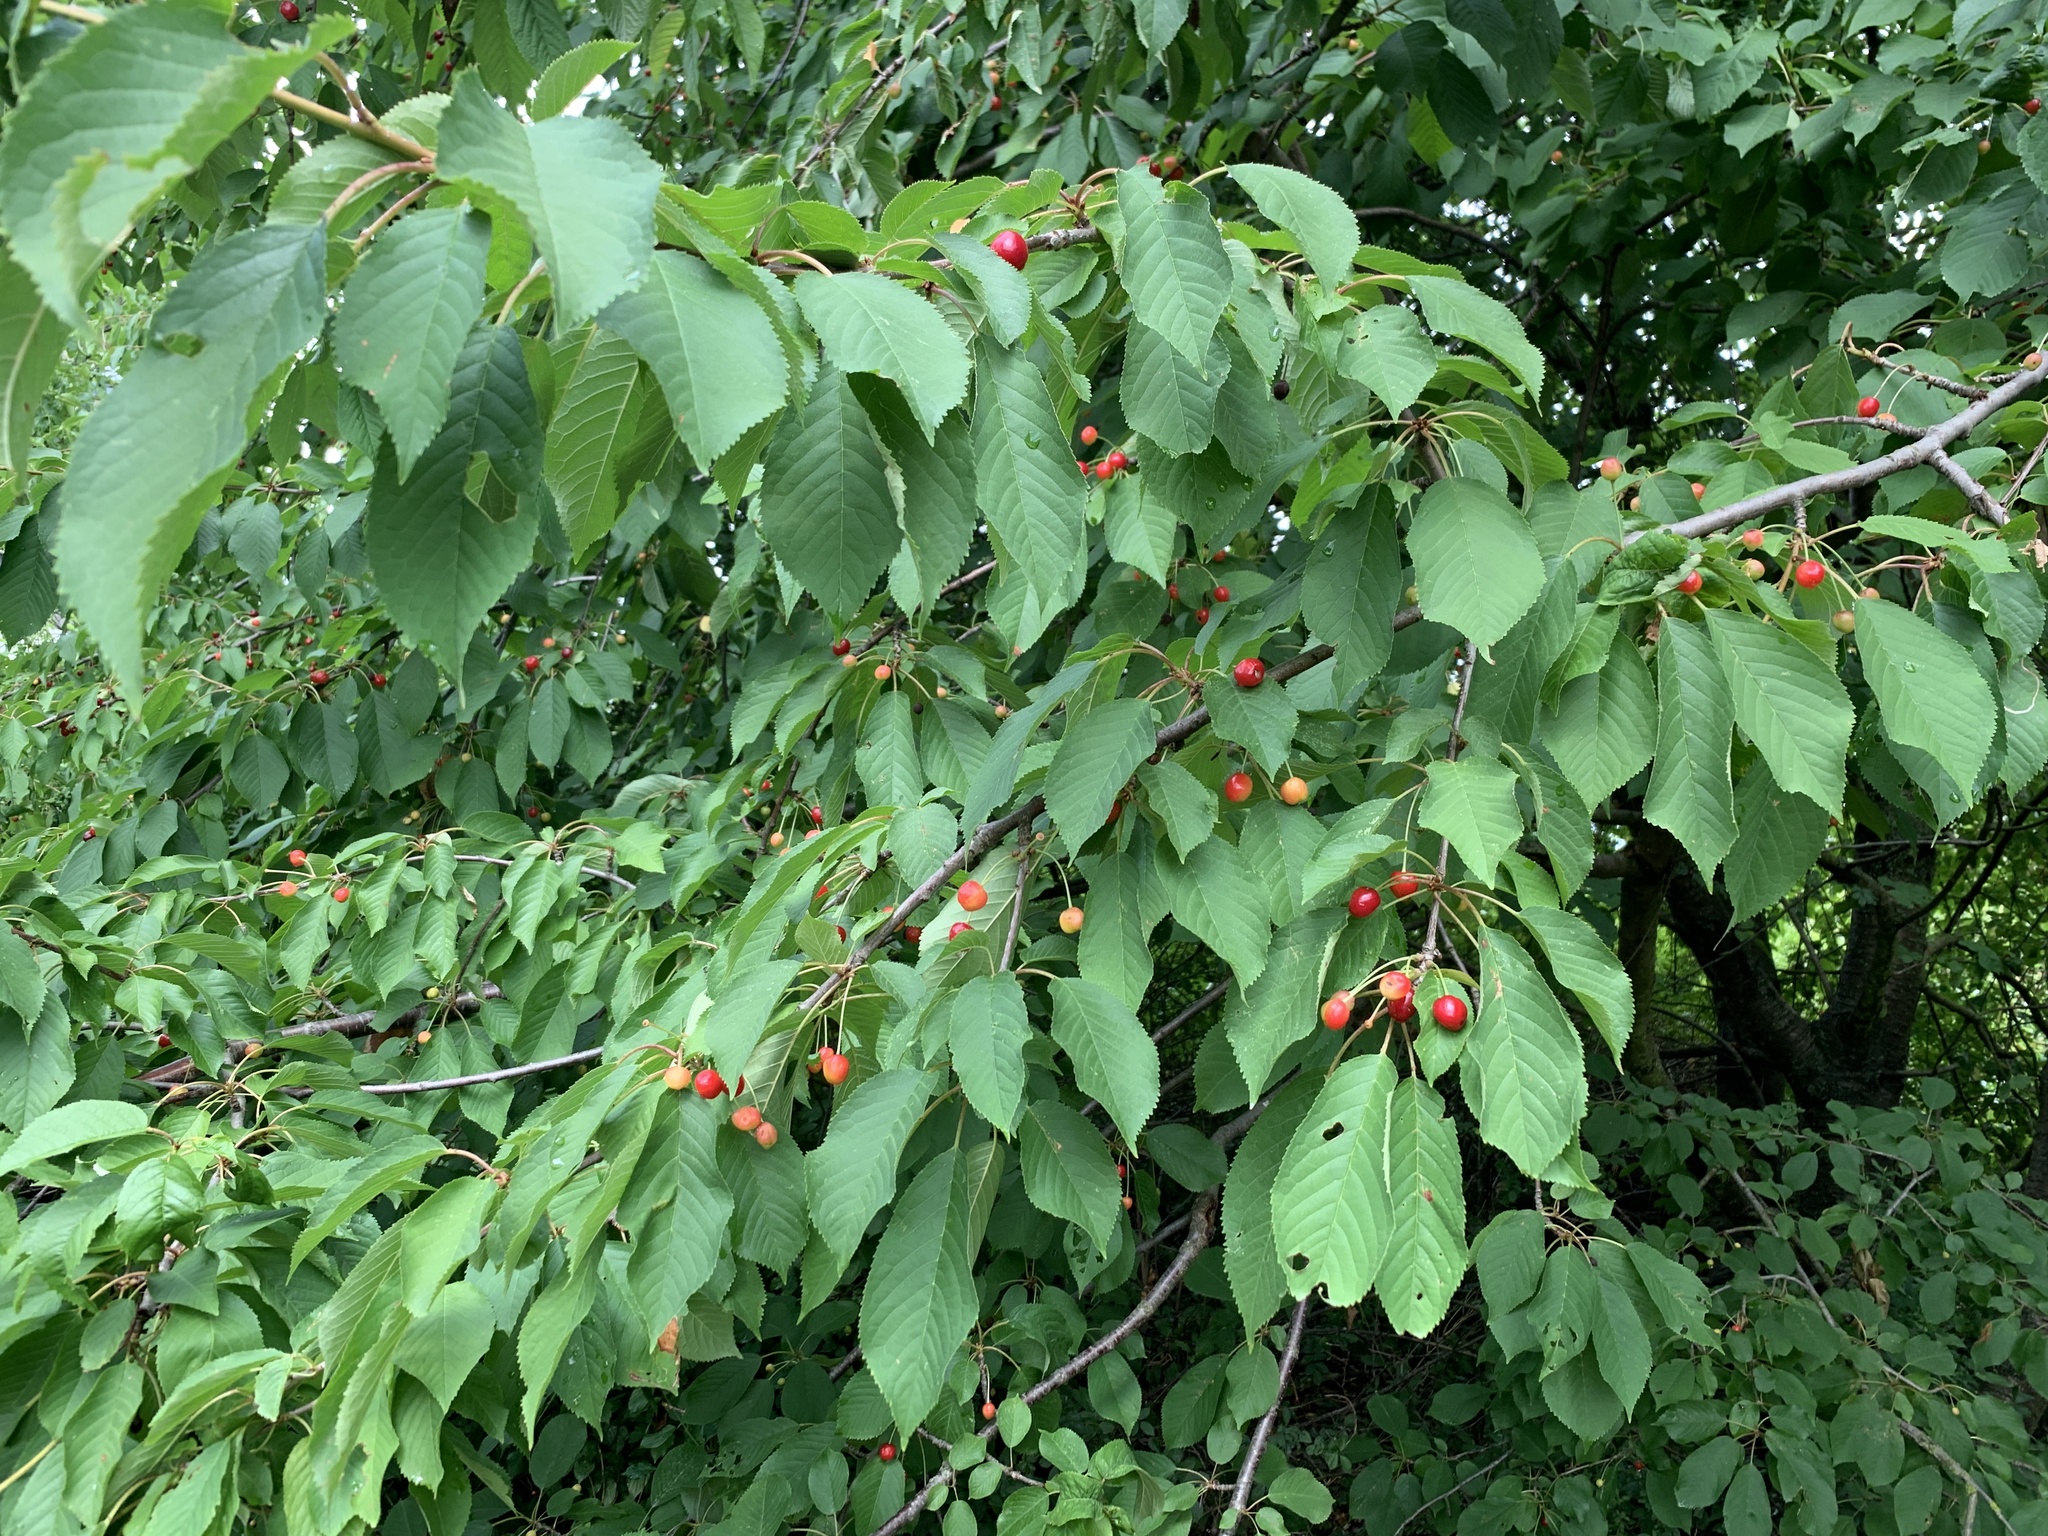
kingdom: Plantae
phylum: Tracheophyta
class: Magnoliopsida
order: Rosales
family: Rosaceae
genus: Prunus
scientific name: Prunus avium
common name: Sweet cherry
